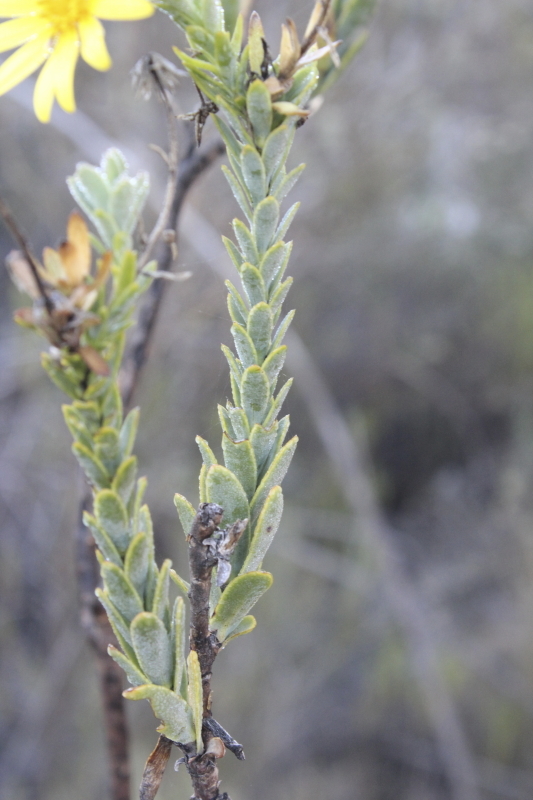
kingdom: Plantae
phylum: Tracheophyta
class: Magnoliopsida
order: Asterales
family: Asteraceae
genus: Osteospermum
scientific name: Osteospermum imbricatum
